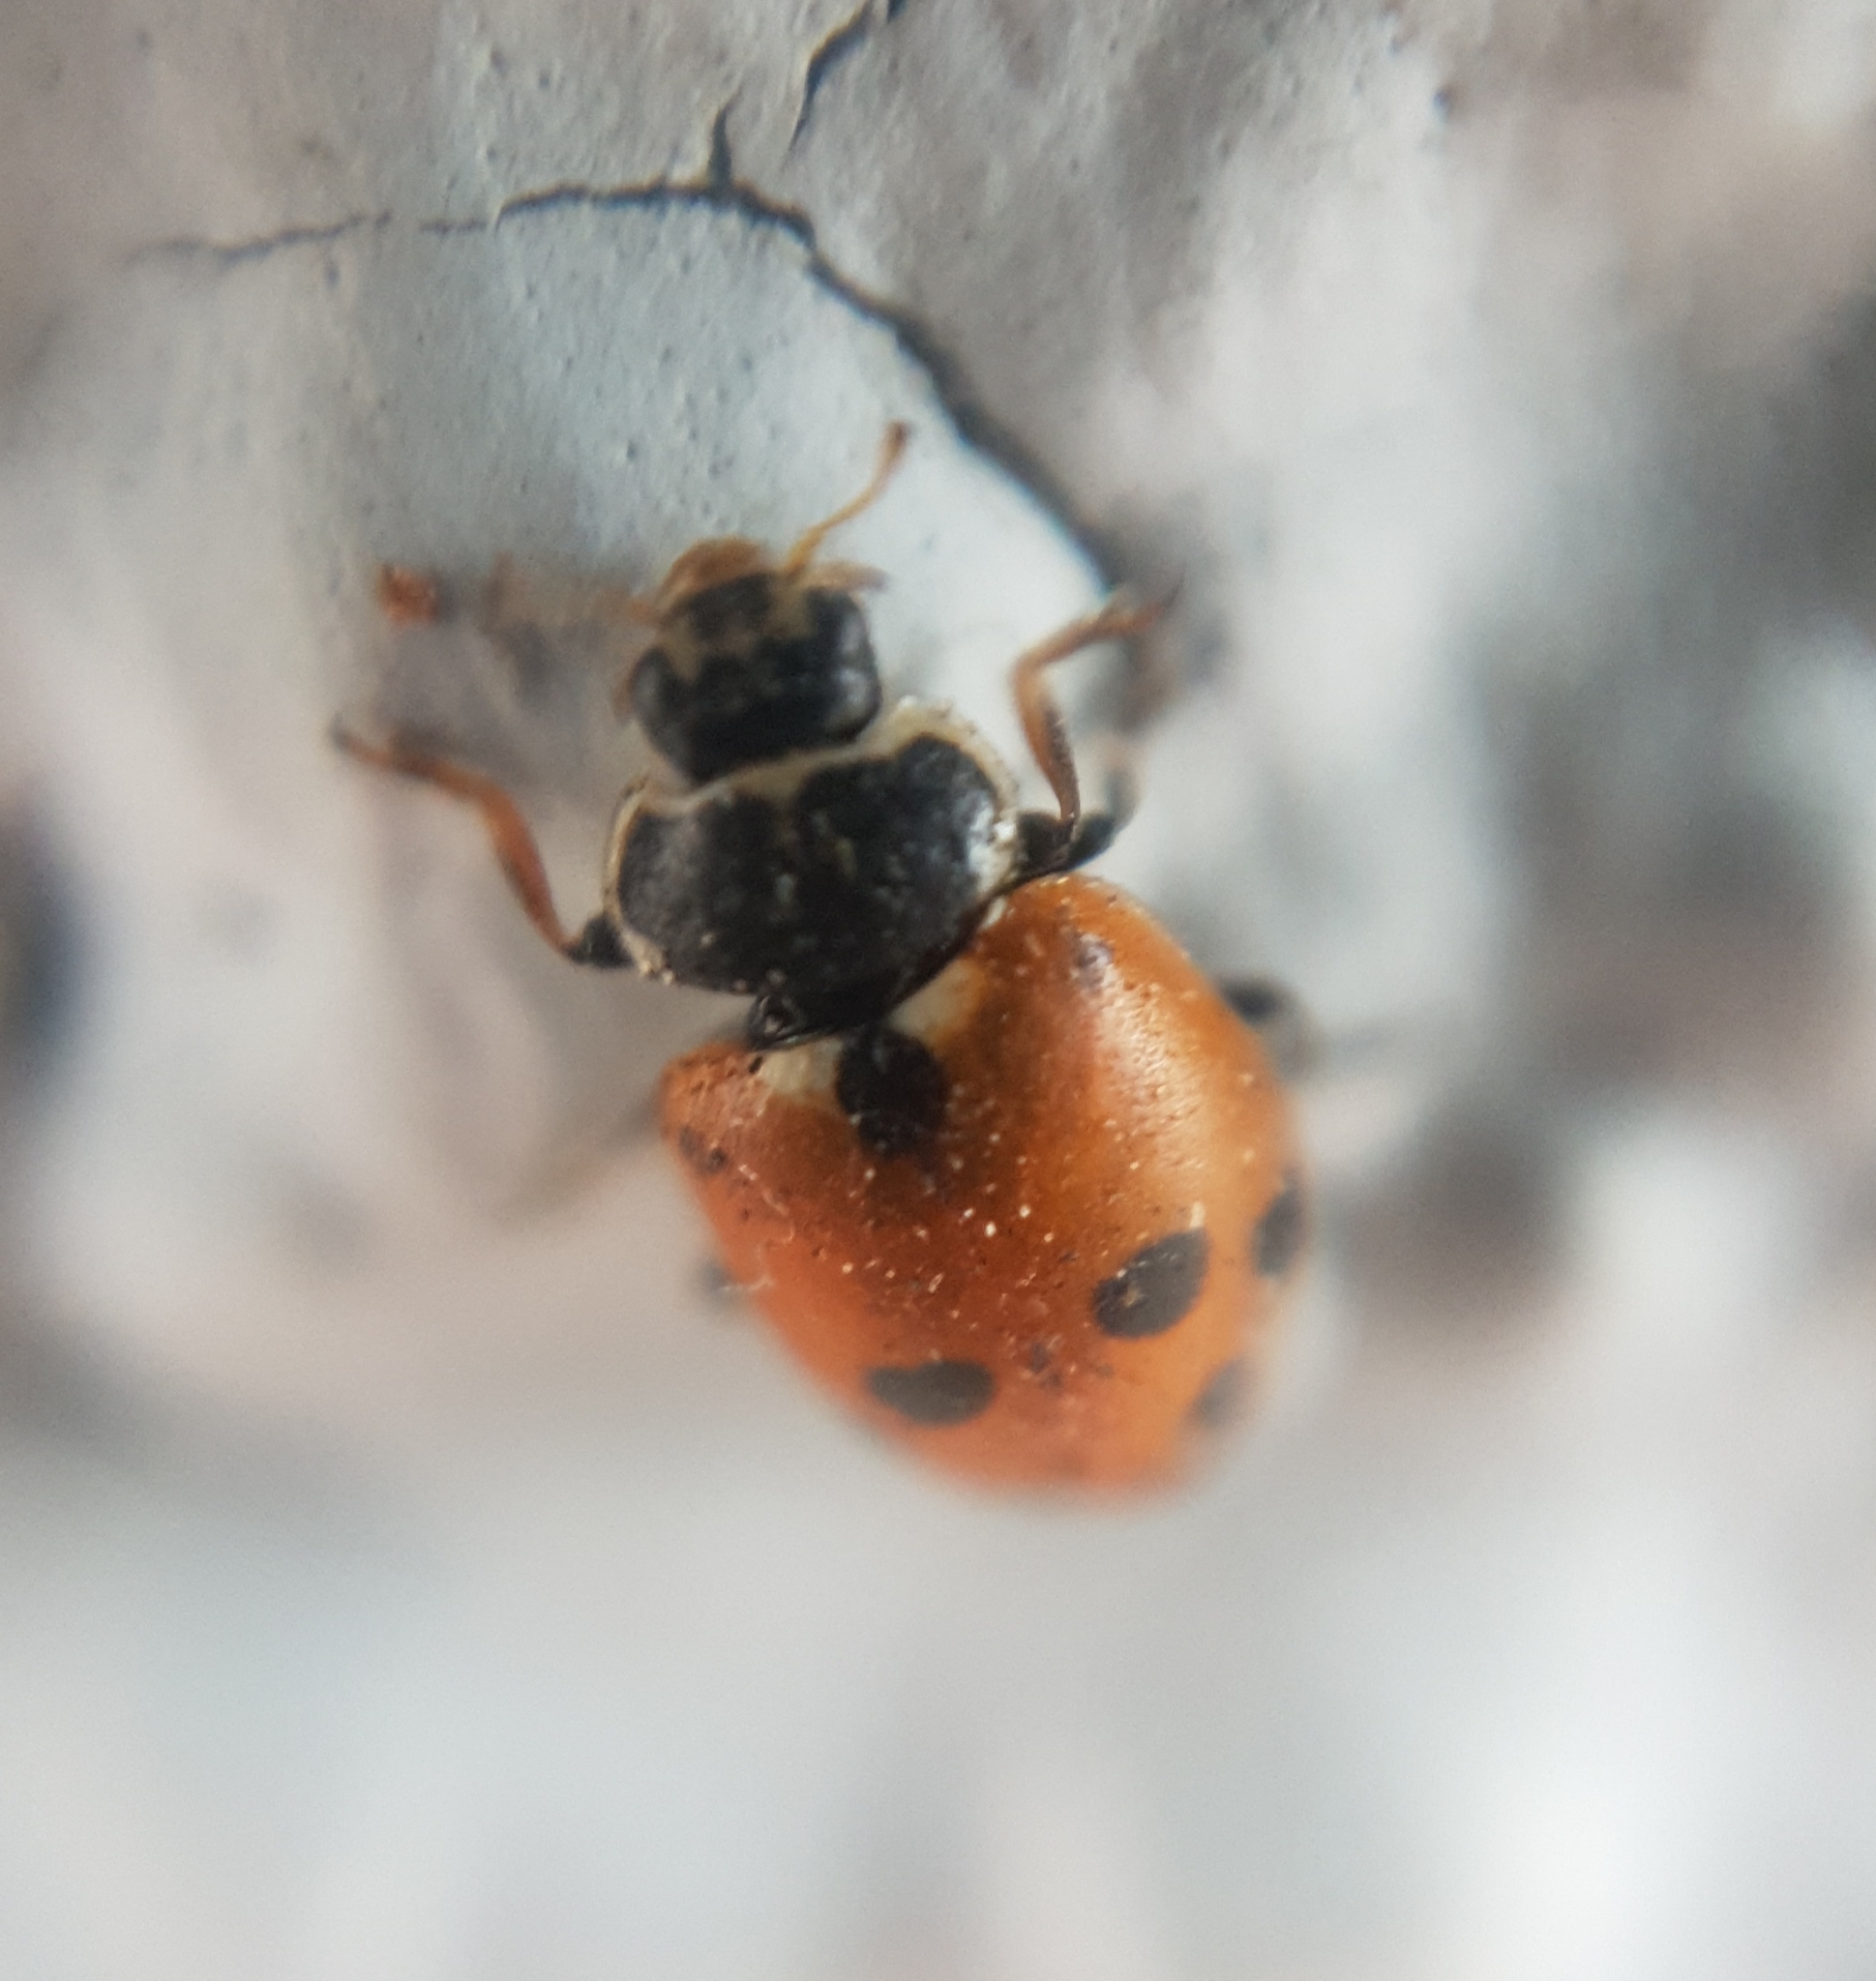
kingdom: Animalia
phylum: Arthropoda
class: Insecta
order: Coleoptera
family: Coccinellidae
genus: Hippodamia
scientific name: Hippodamia variegata
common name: Ladybird beetle
